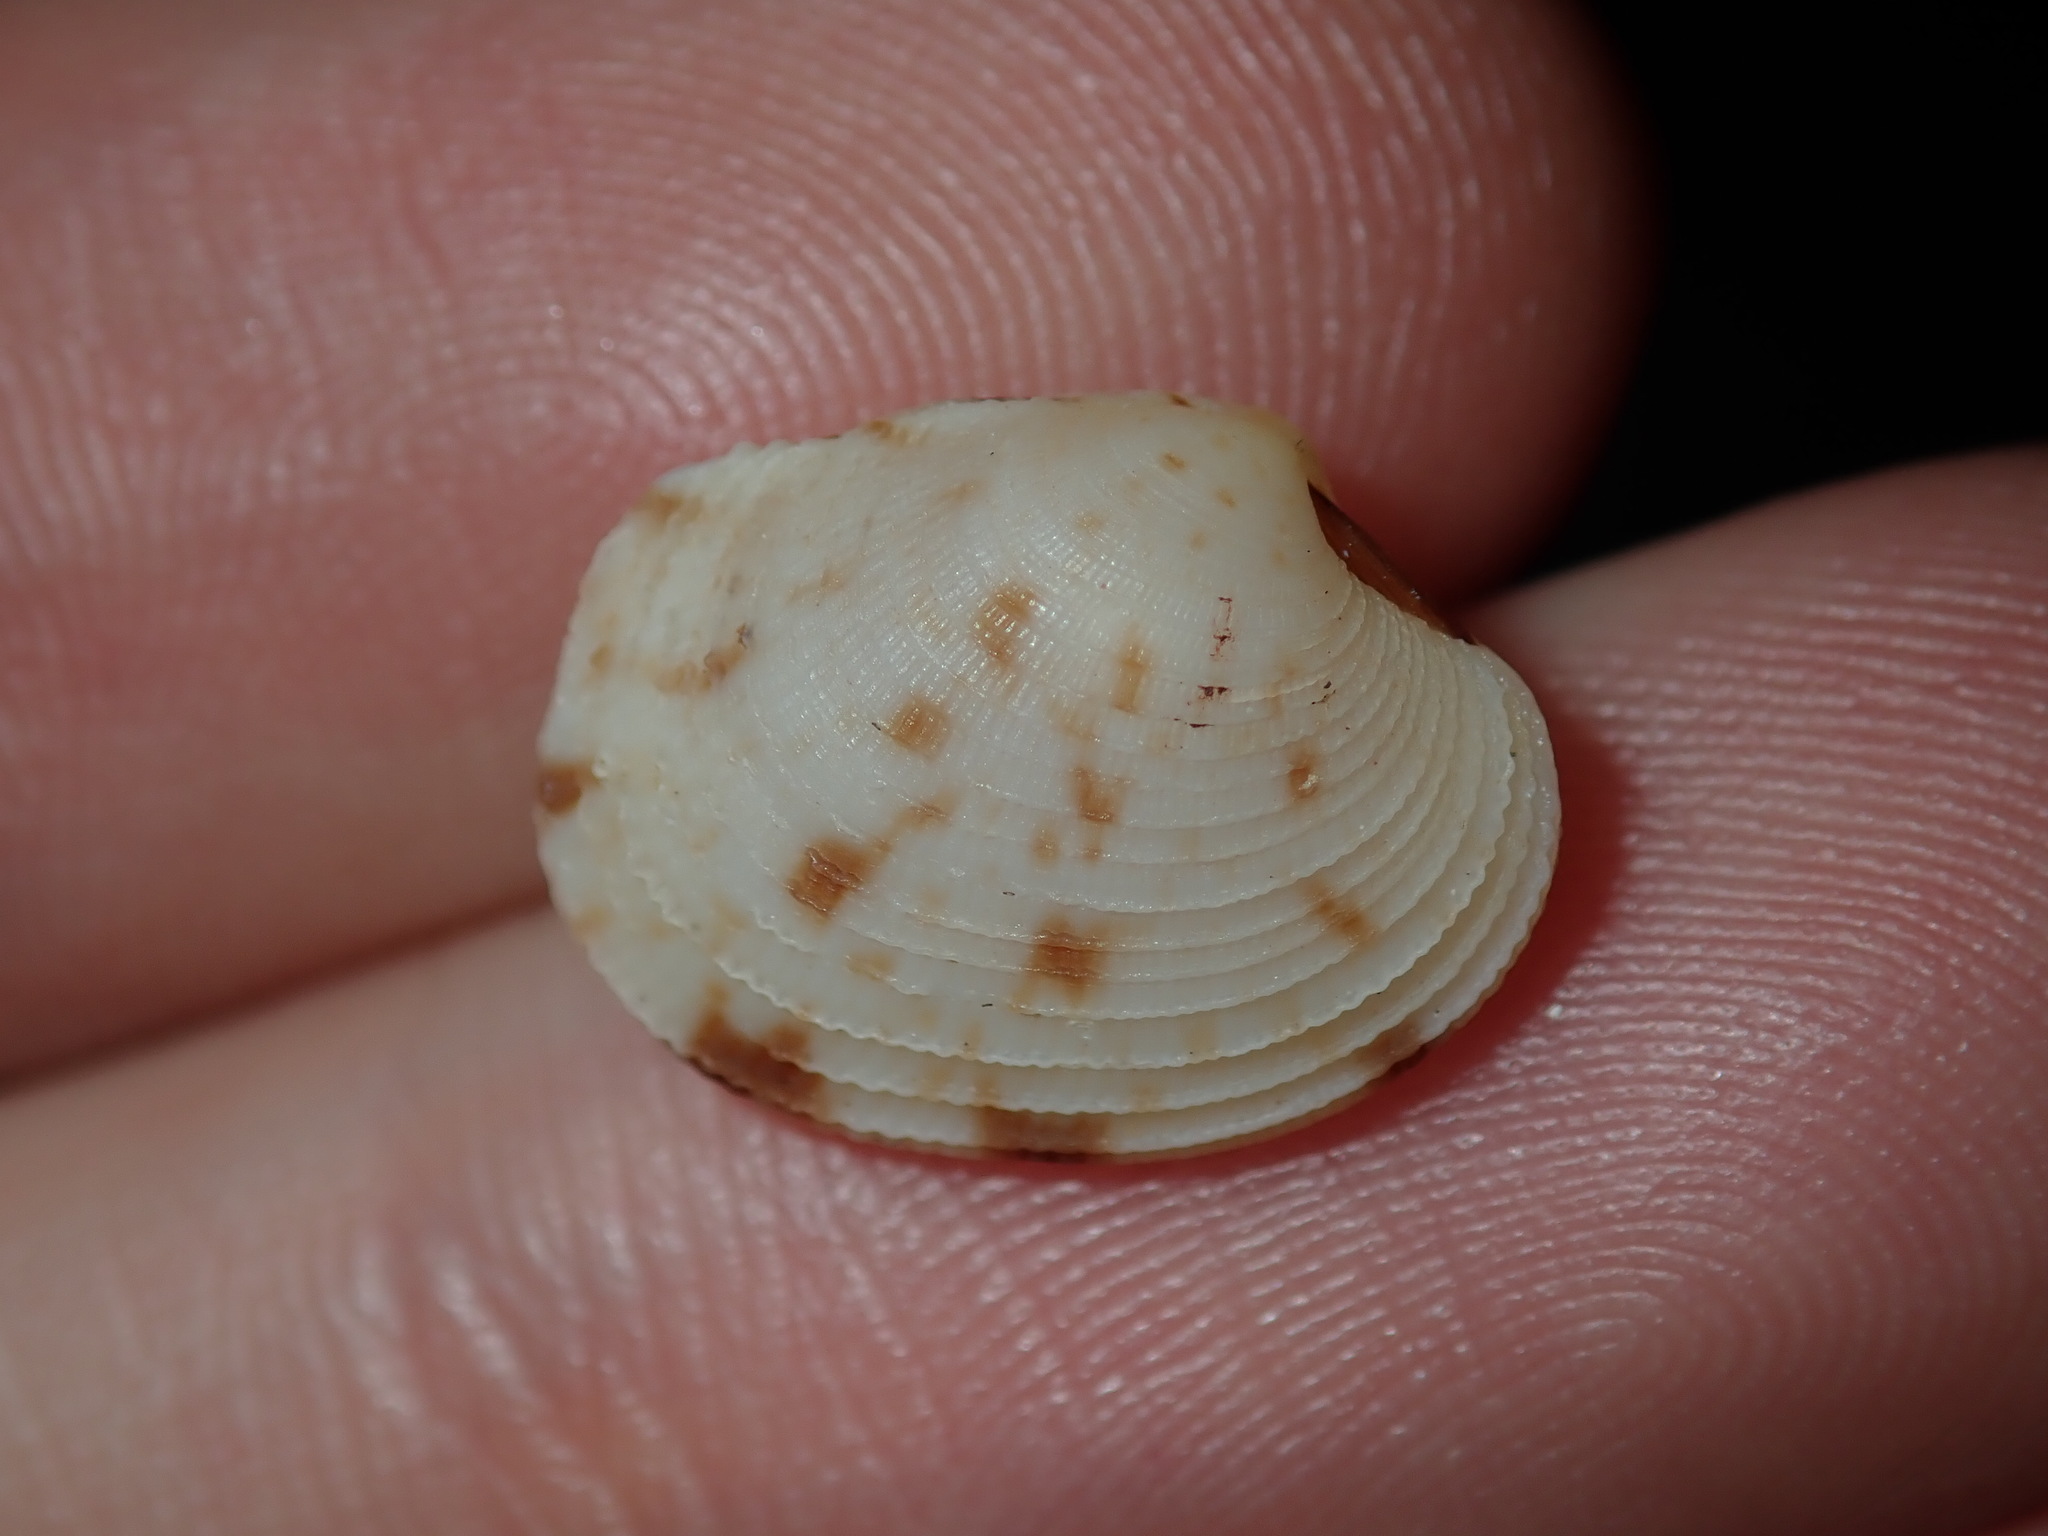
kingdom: Animalia
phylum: Mollusca
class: Bivalvia
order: Venerida
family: Veneridae
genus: Antigona
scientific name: Antigona persimilis
